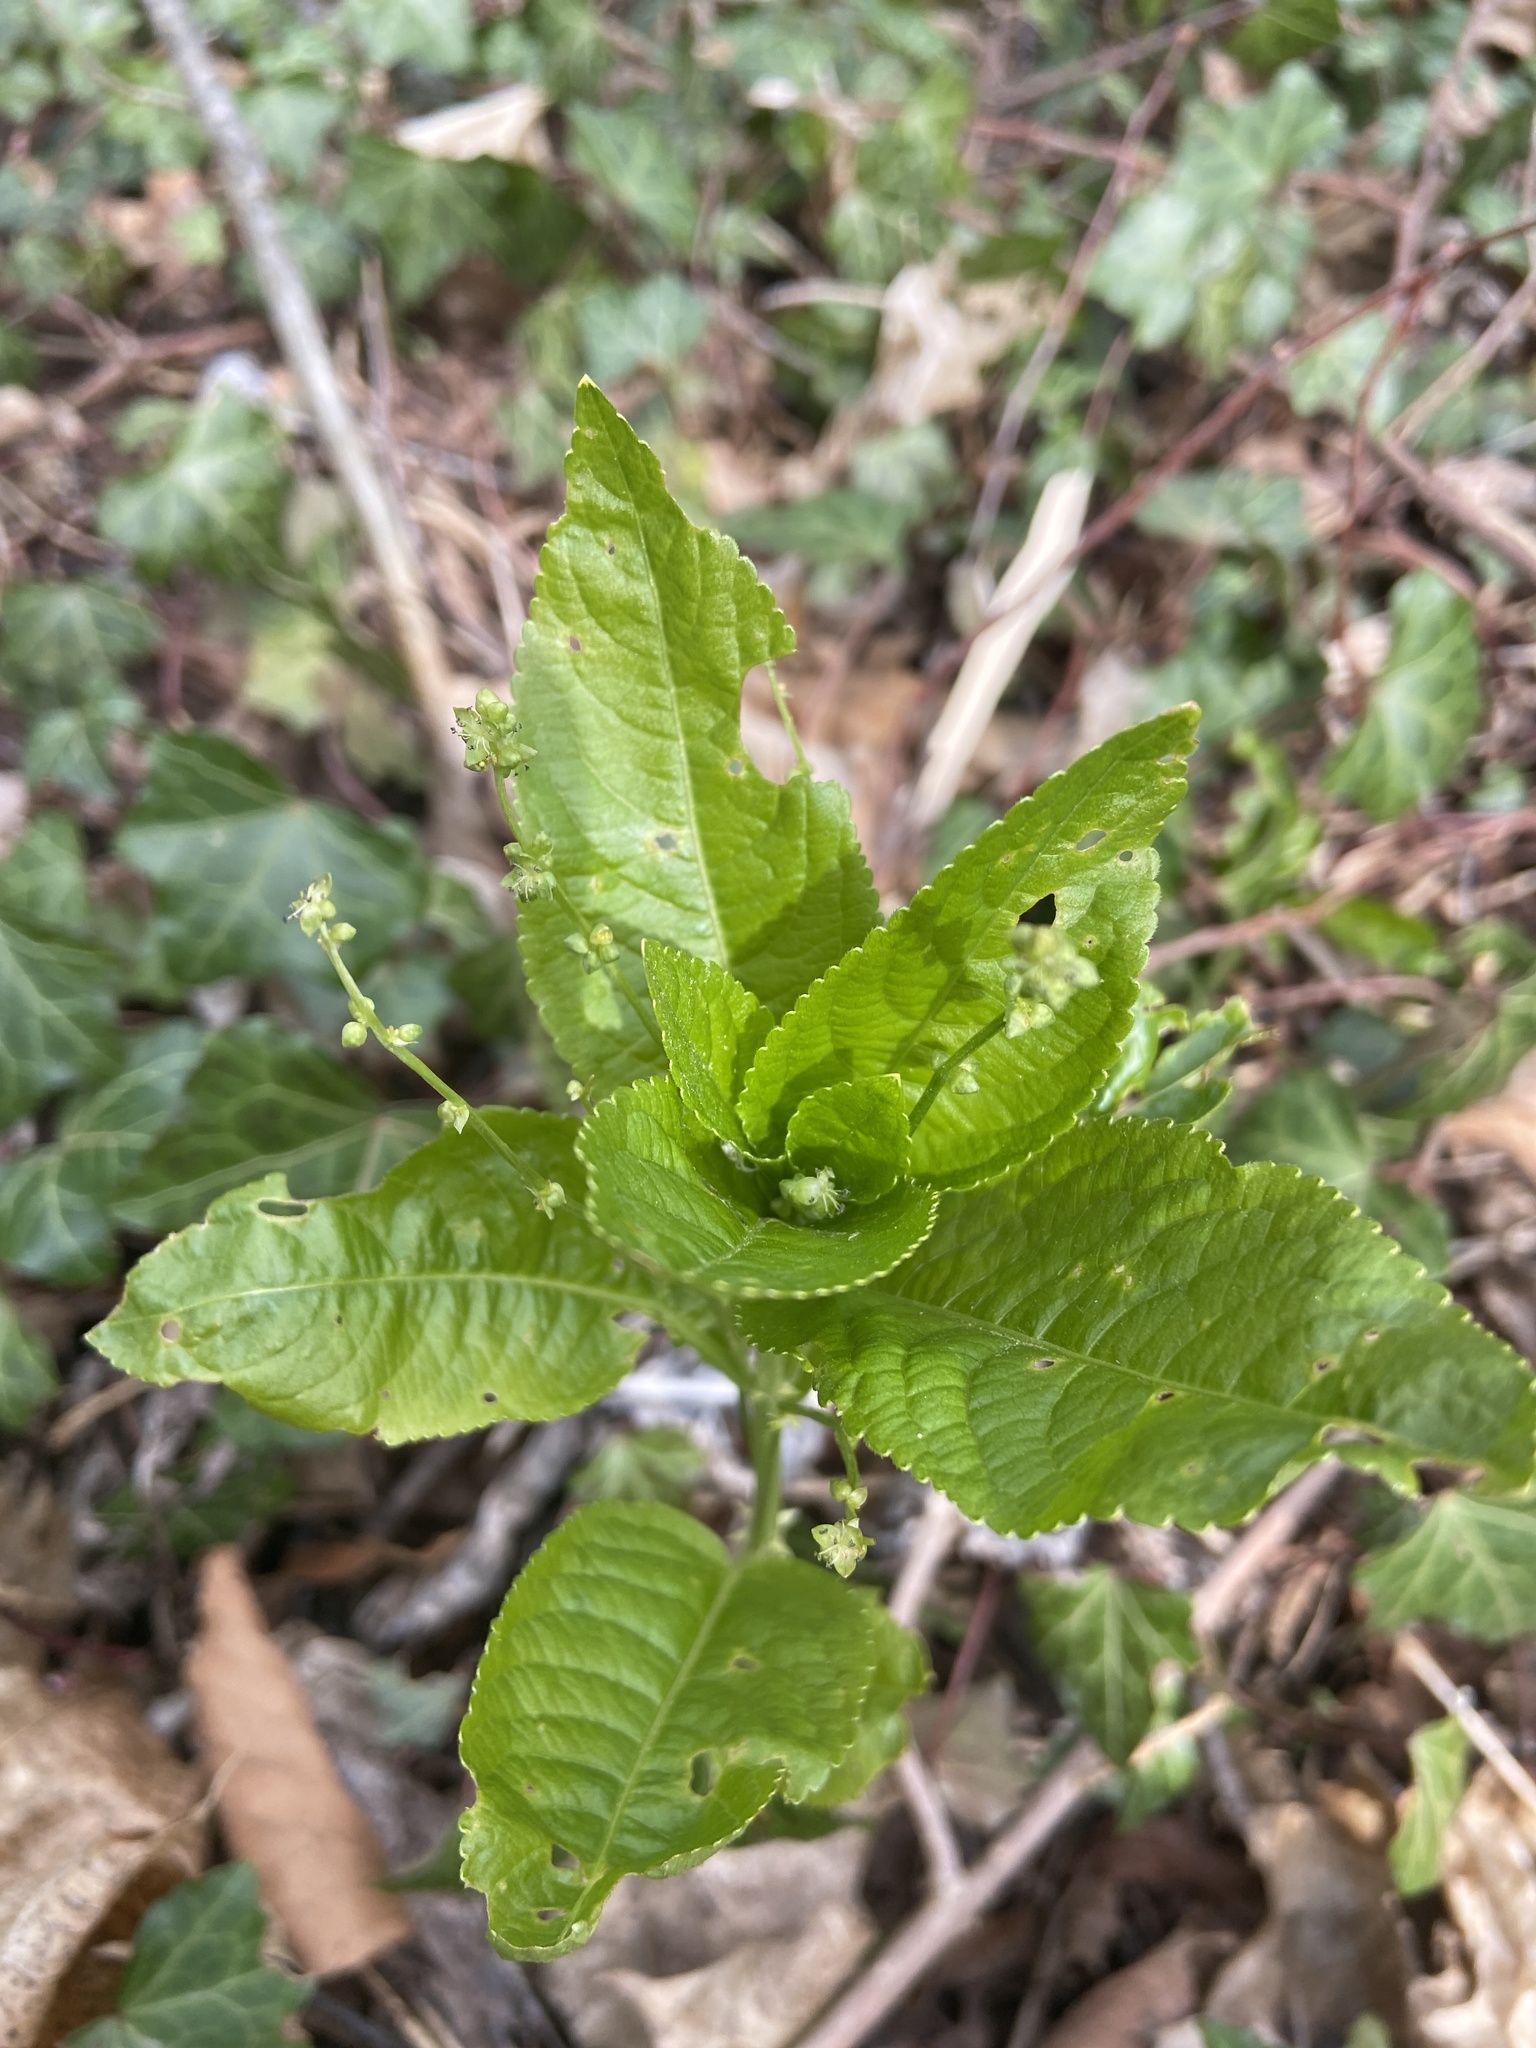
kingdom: Plantae
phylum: Tracheophyta
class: Magnoliopsida
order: Malpighiales
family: Euphorbiaceae
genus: Mercurialis
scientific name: Mercurialis perennis
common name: Dog mercury
